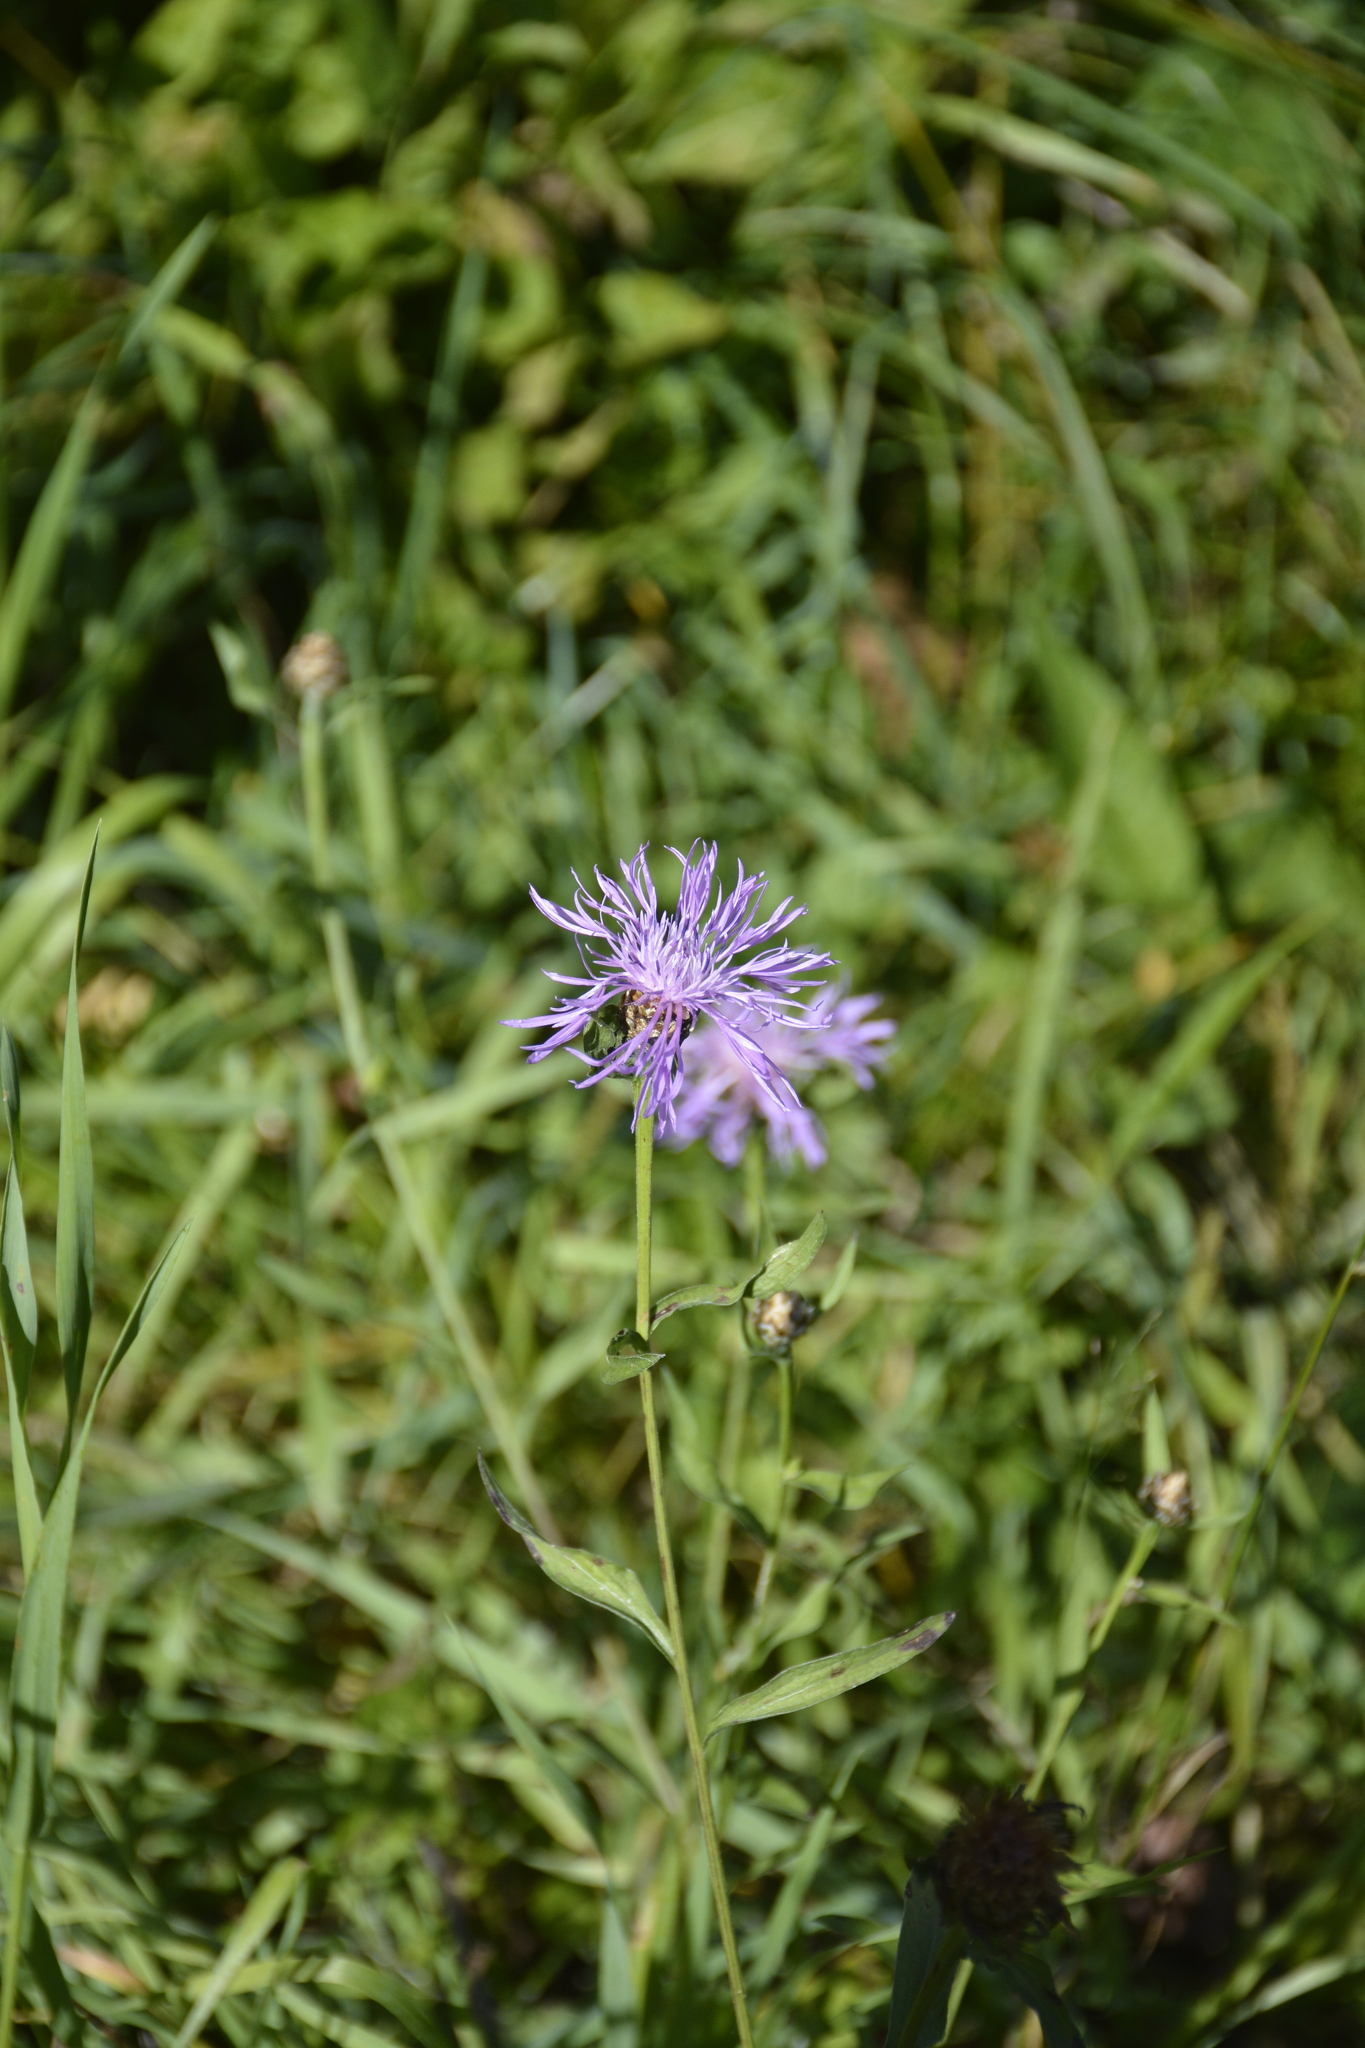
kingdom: Plantae
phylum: Tracheophyta
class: Magnoliopsida
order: Asterales
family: Asteraceae
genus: Centaurea
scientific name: Centaurea jacea
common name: Brown knapweed
